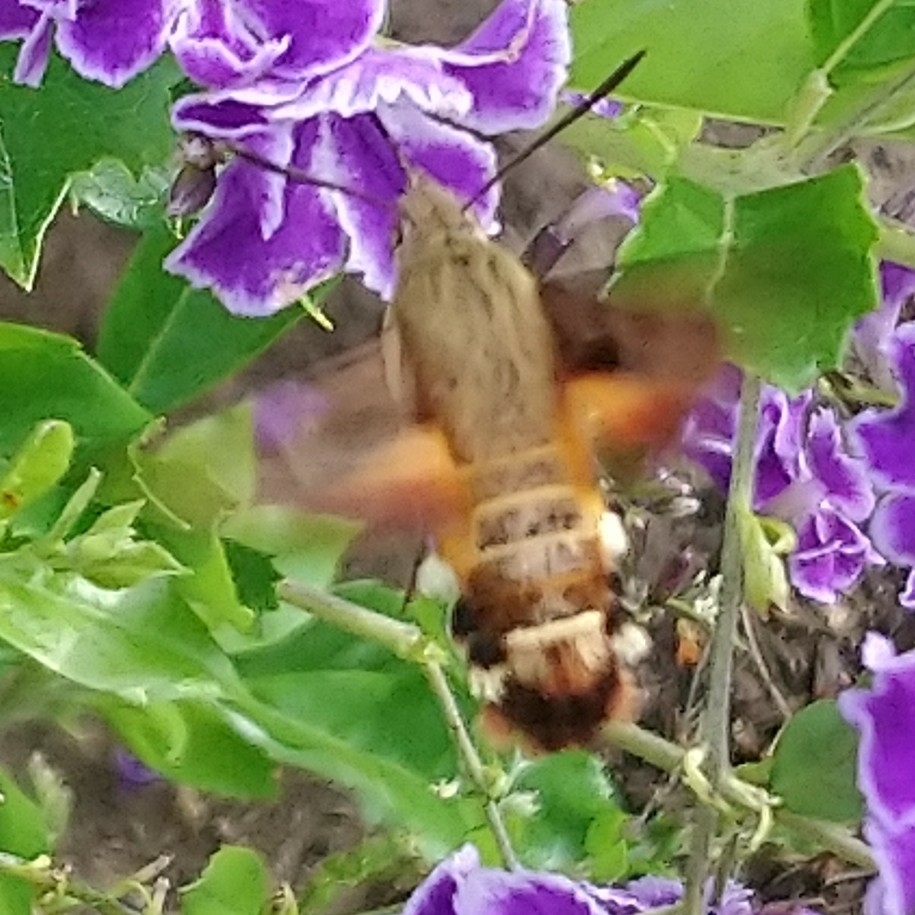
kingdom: Animalia
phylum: Arthropoda
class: Insecta
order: Lepidoptera
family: Sphingidae
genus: Macroglossum
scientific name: Macroglossum trochilus
